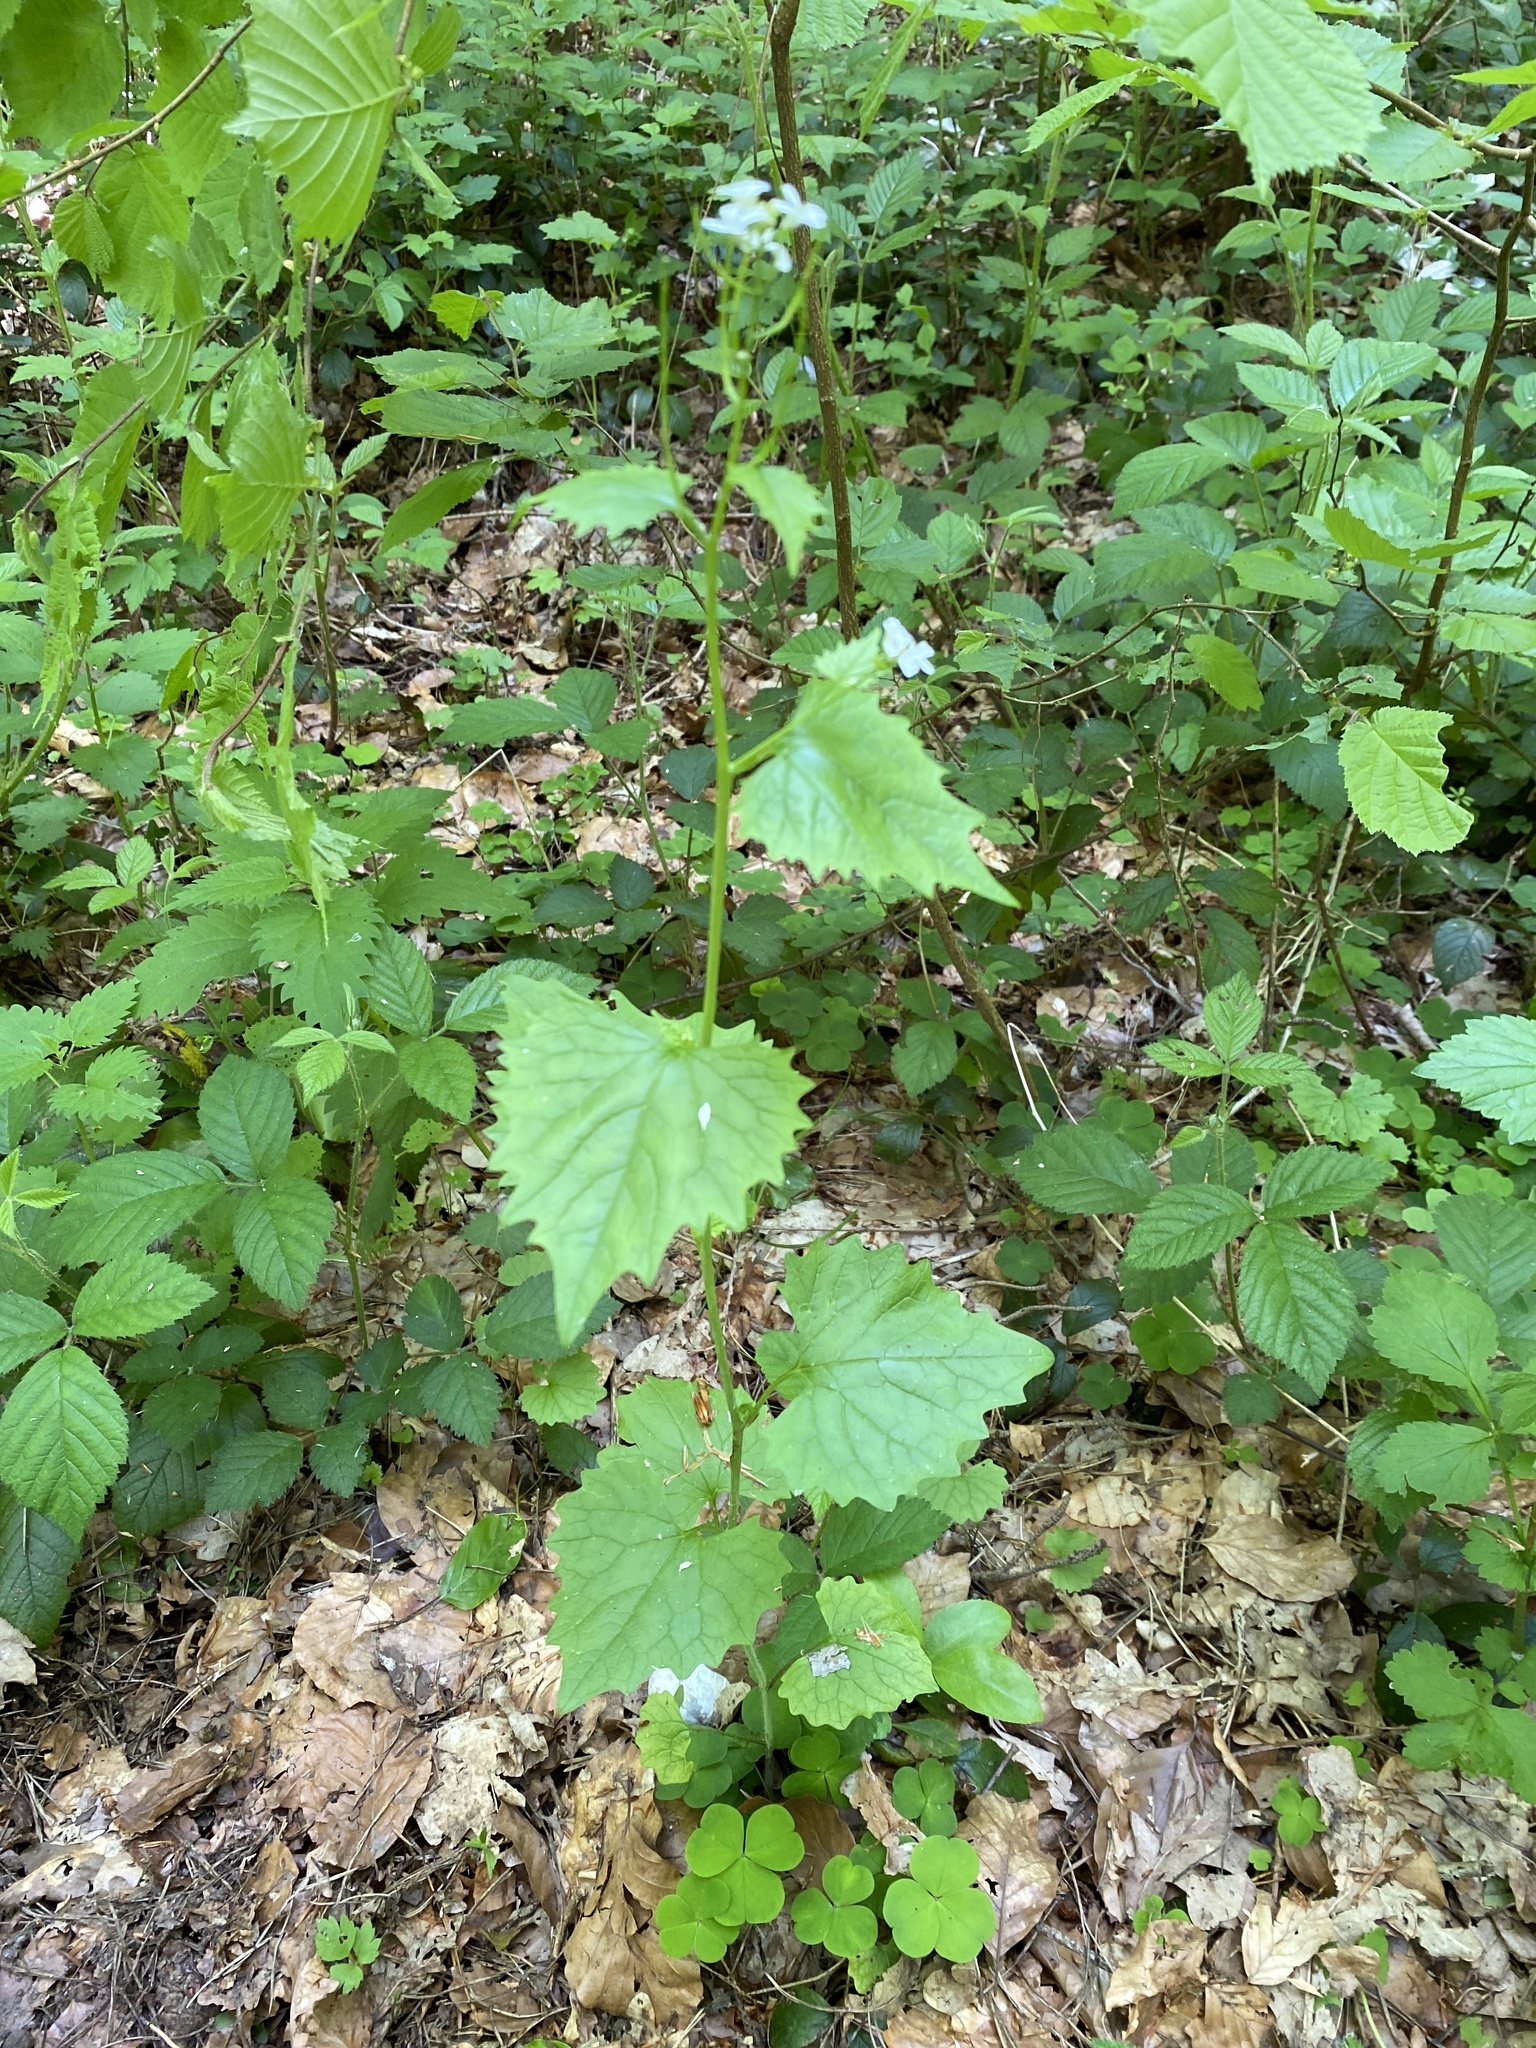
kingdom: Plantae
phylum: Tracheophyta
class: Magnoliopsida
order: Brassicales
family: Brassicaceae
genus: Alliaria
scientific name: Alliaria petiolata
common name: Garlic mustard
